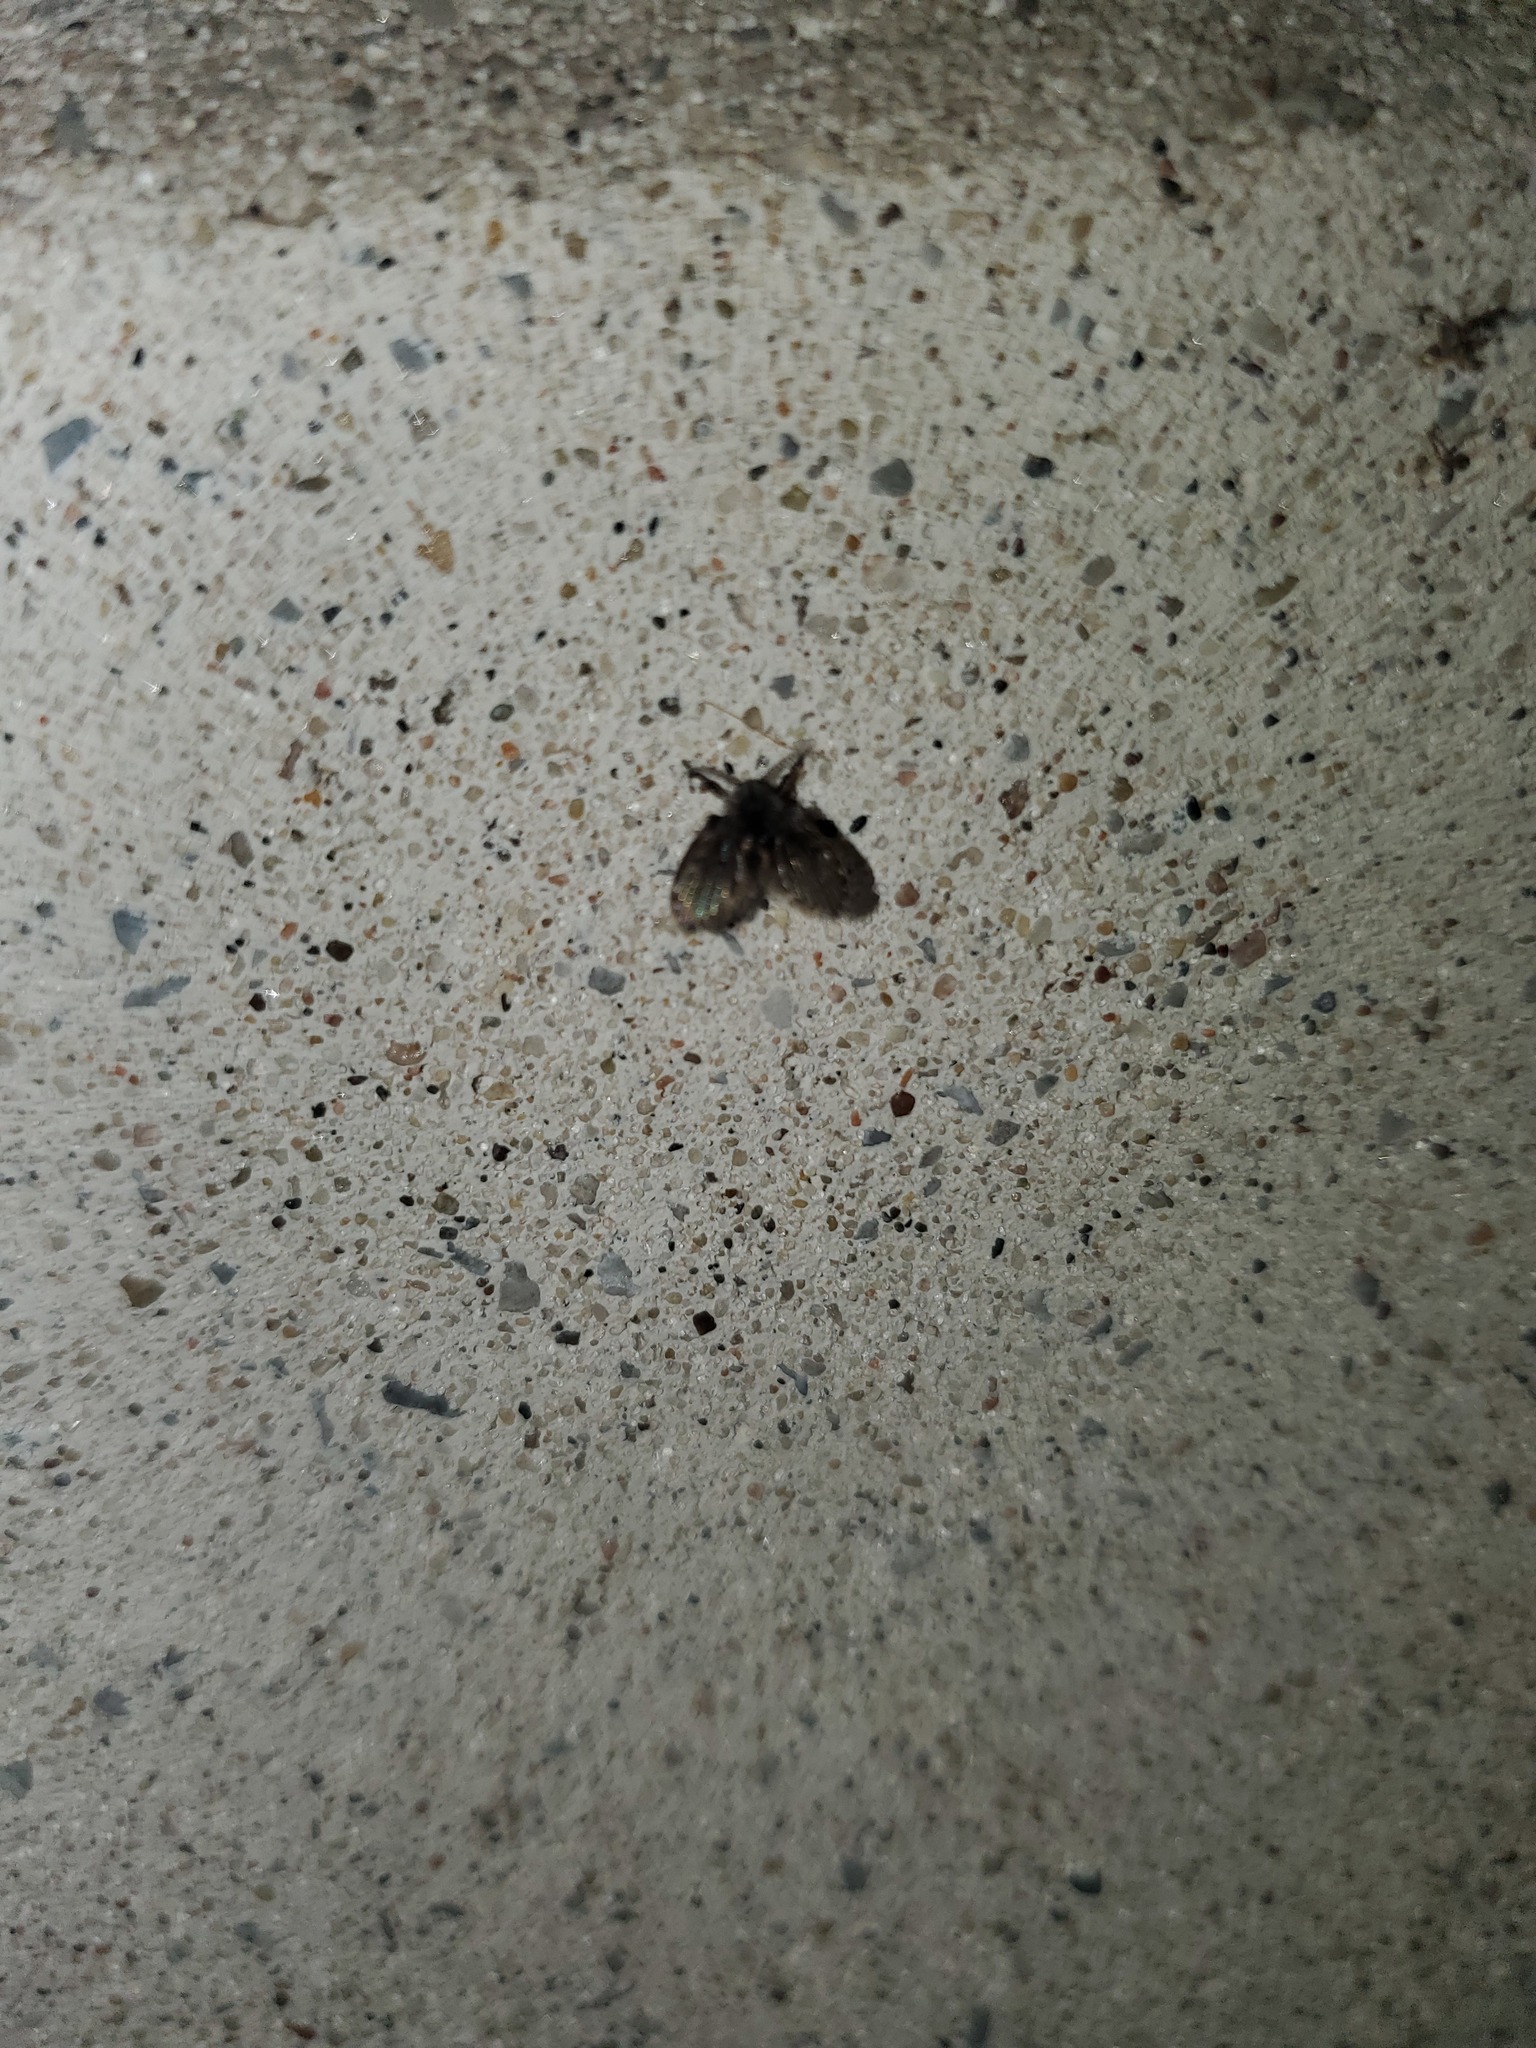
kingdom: Animalia
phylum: Arthropoda
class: Insecta
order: Diptera
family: Psychodidae
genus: Clogmia
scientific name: Clogmia albipunctatus
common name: White-spotted moth fly
